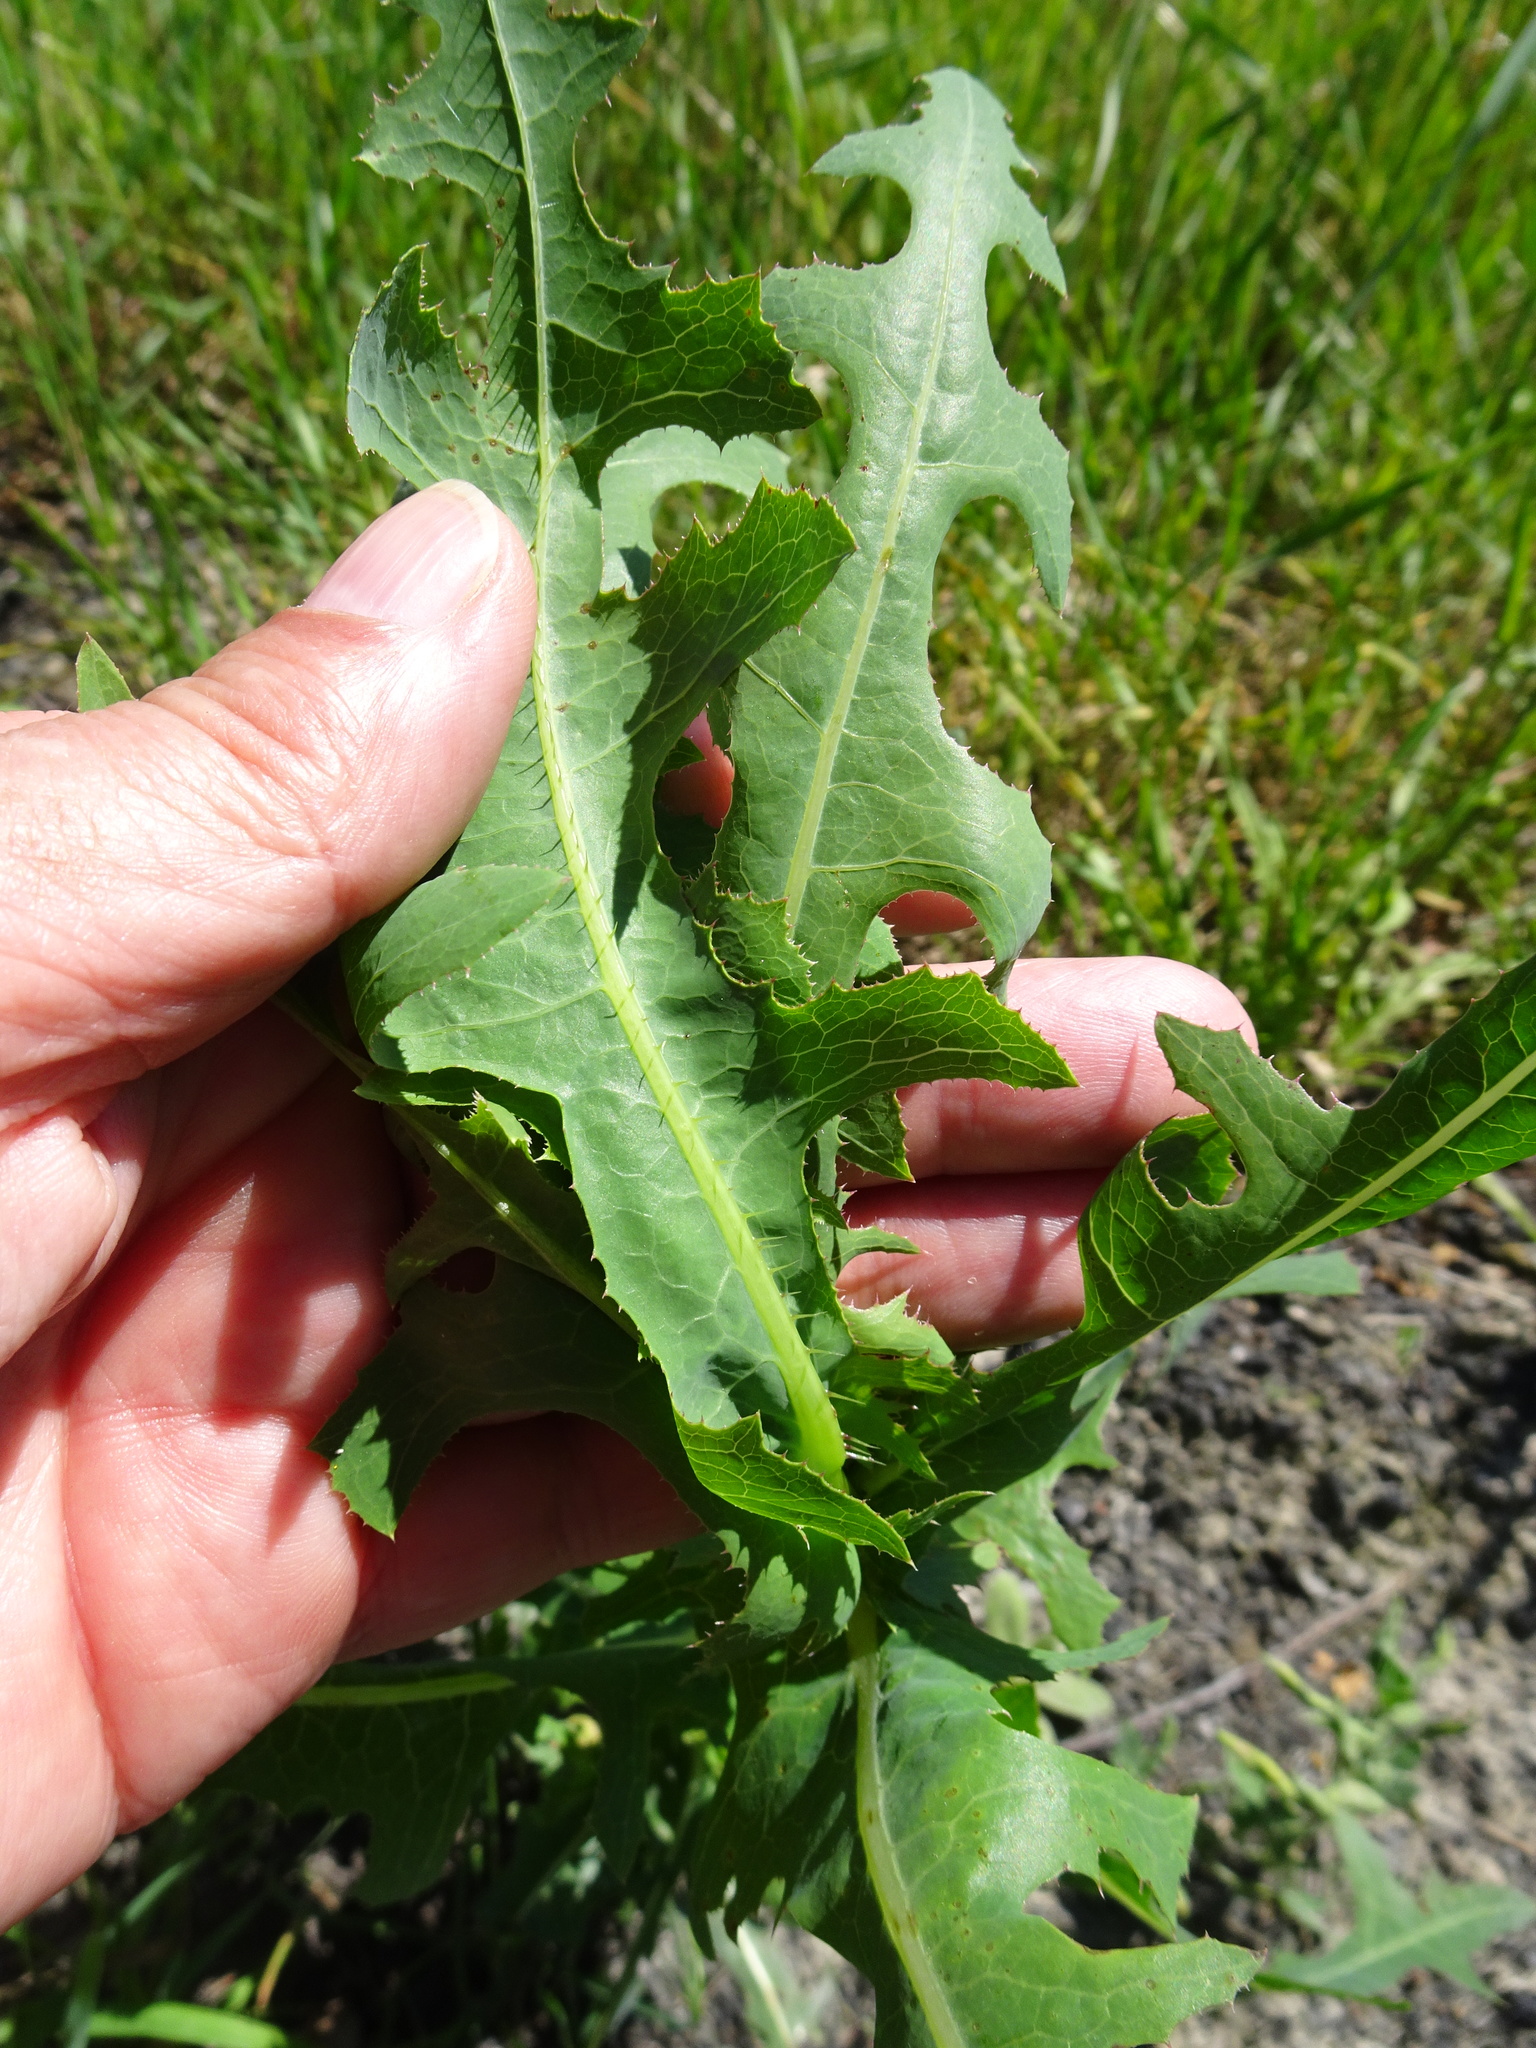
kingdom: Plantae
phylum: Tracheophyta
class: Magnoliopsida
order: Asterales
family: Asteraceae
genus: Lactuca
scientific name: Lactuca serriola
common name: Prickly lettuce
